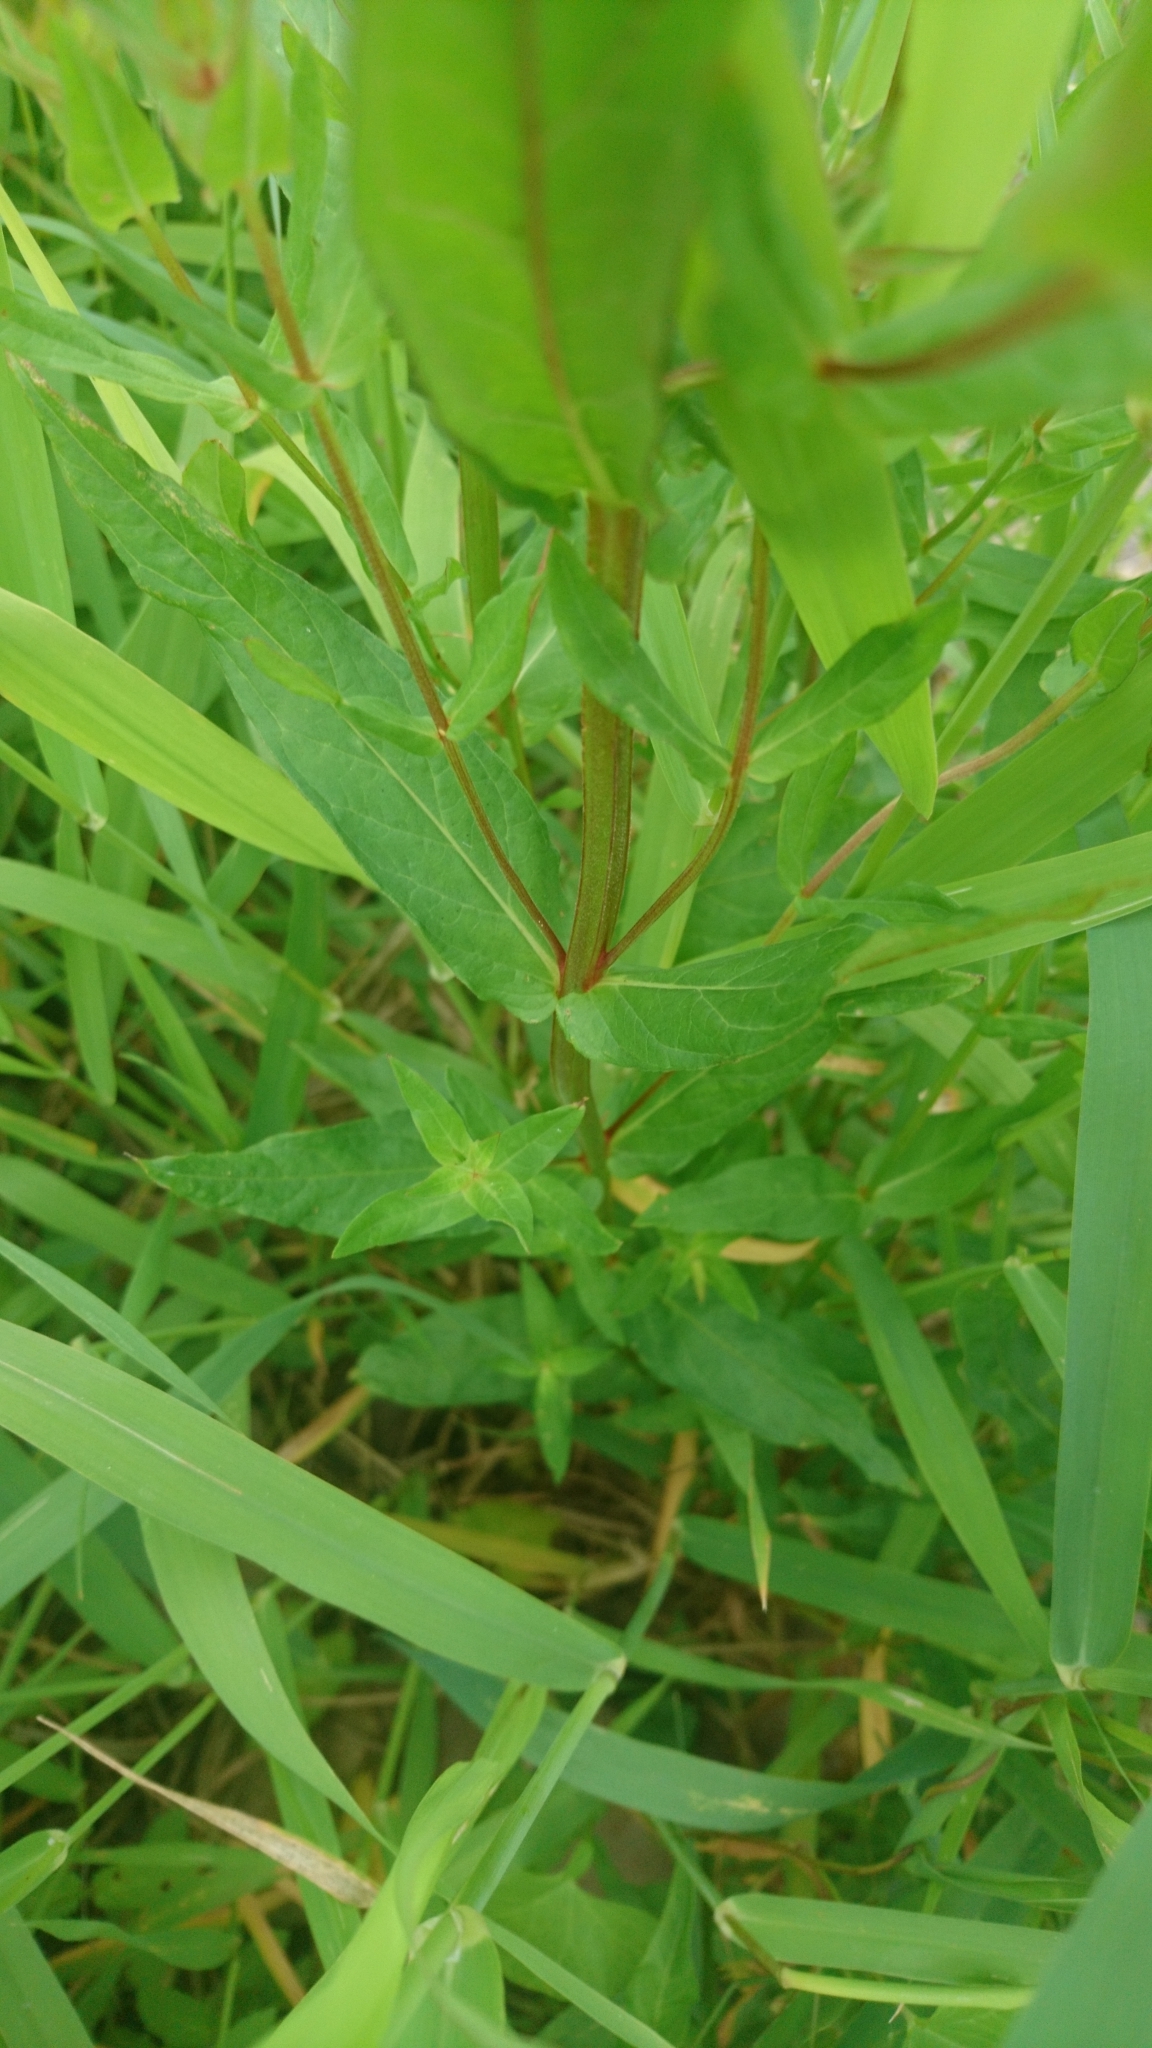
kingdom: Plantae
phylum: Tracheophyta
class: Magnoliopsida
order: Myrtales
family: Lythraceae
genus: Lythrum
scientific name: Lythrum salicaria
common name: Purple loosestrife
